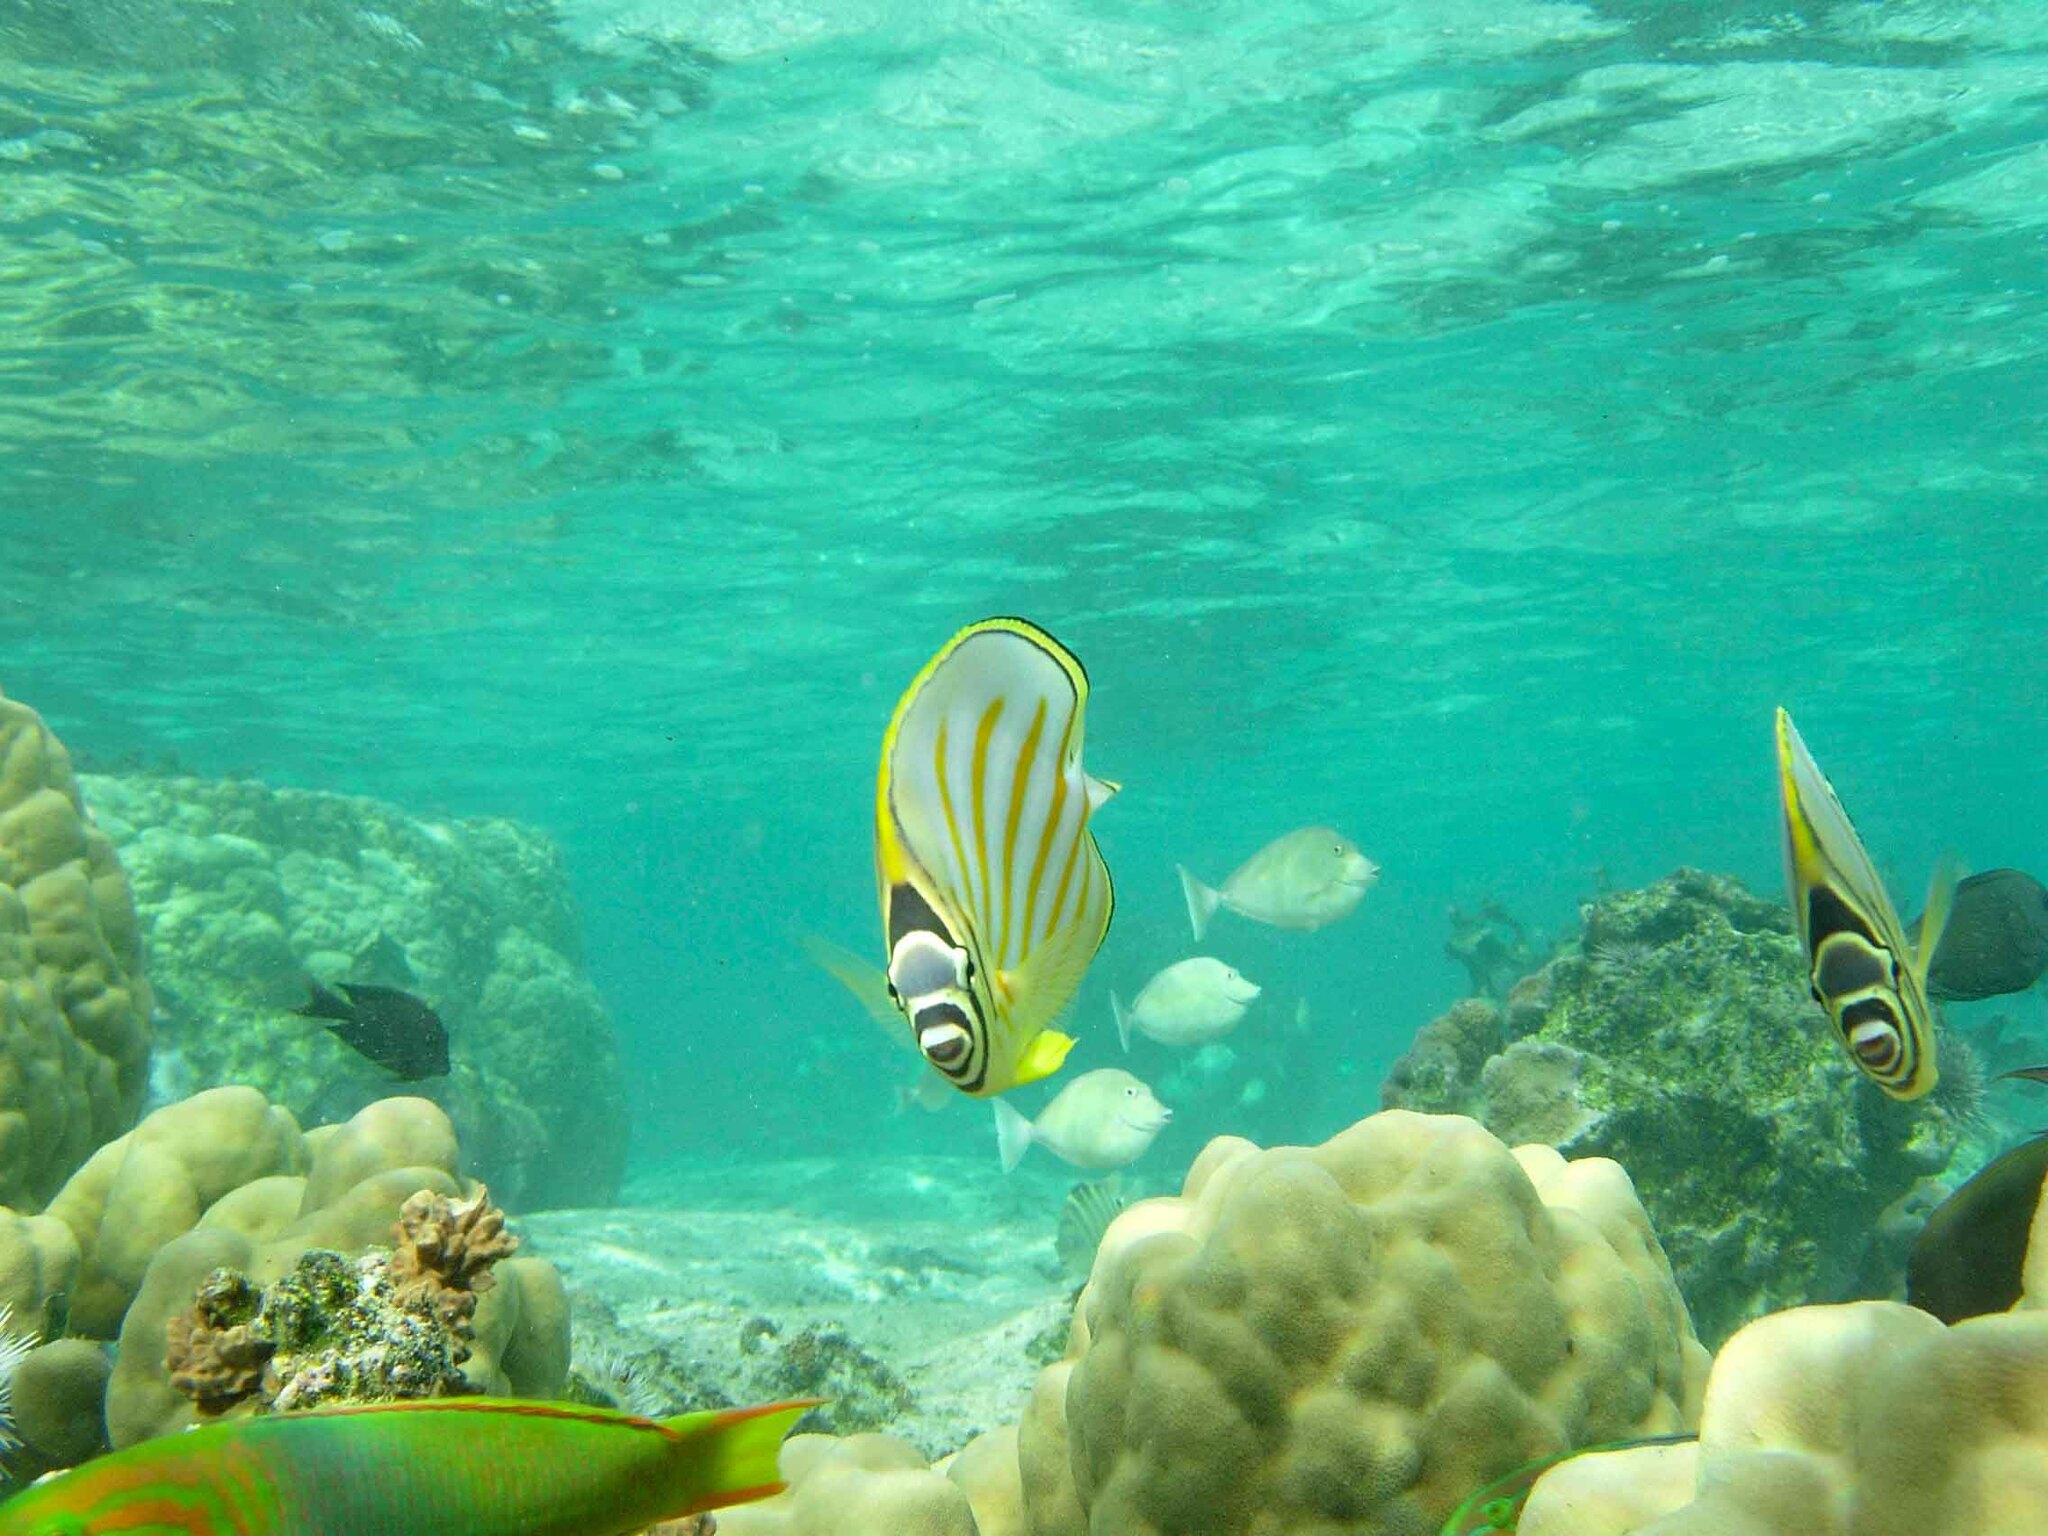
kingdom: Animalia
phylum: Chordata
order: Perciformes
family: Chaetodontidae
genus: Chaetodon
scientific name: Chaetodon ornatissimus
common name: Ornate butterflyfish
